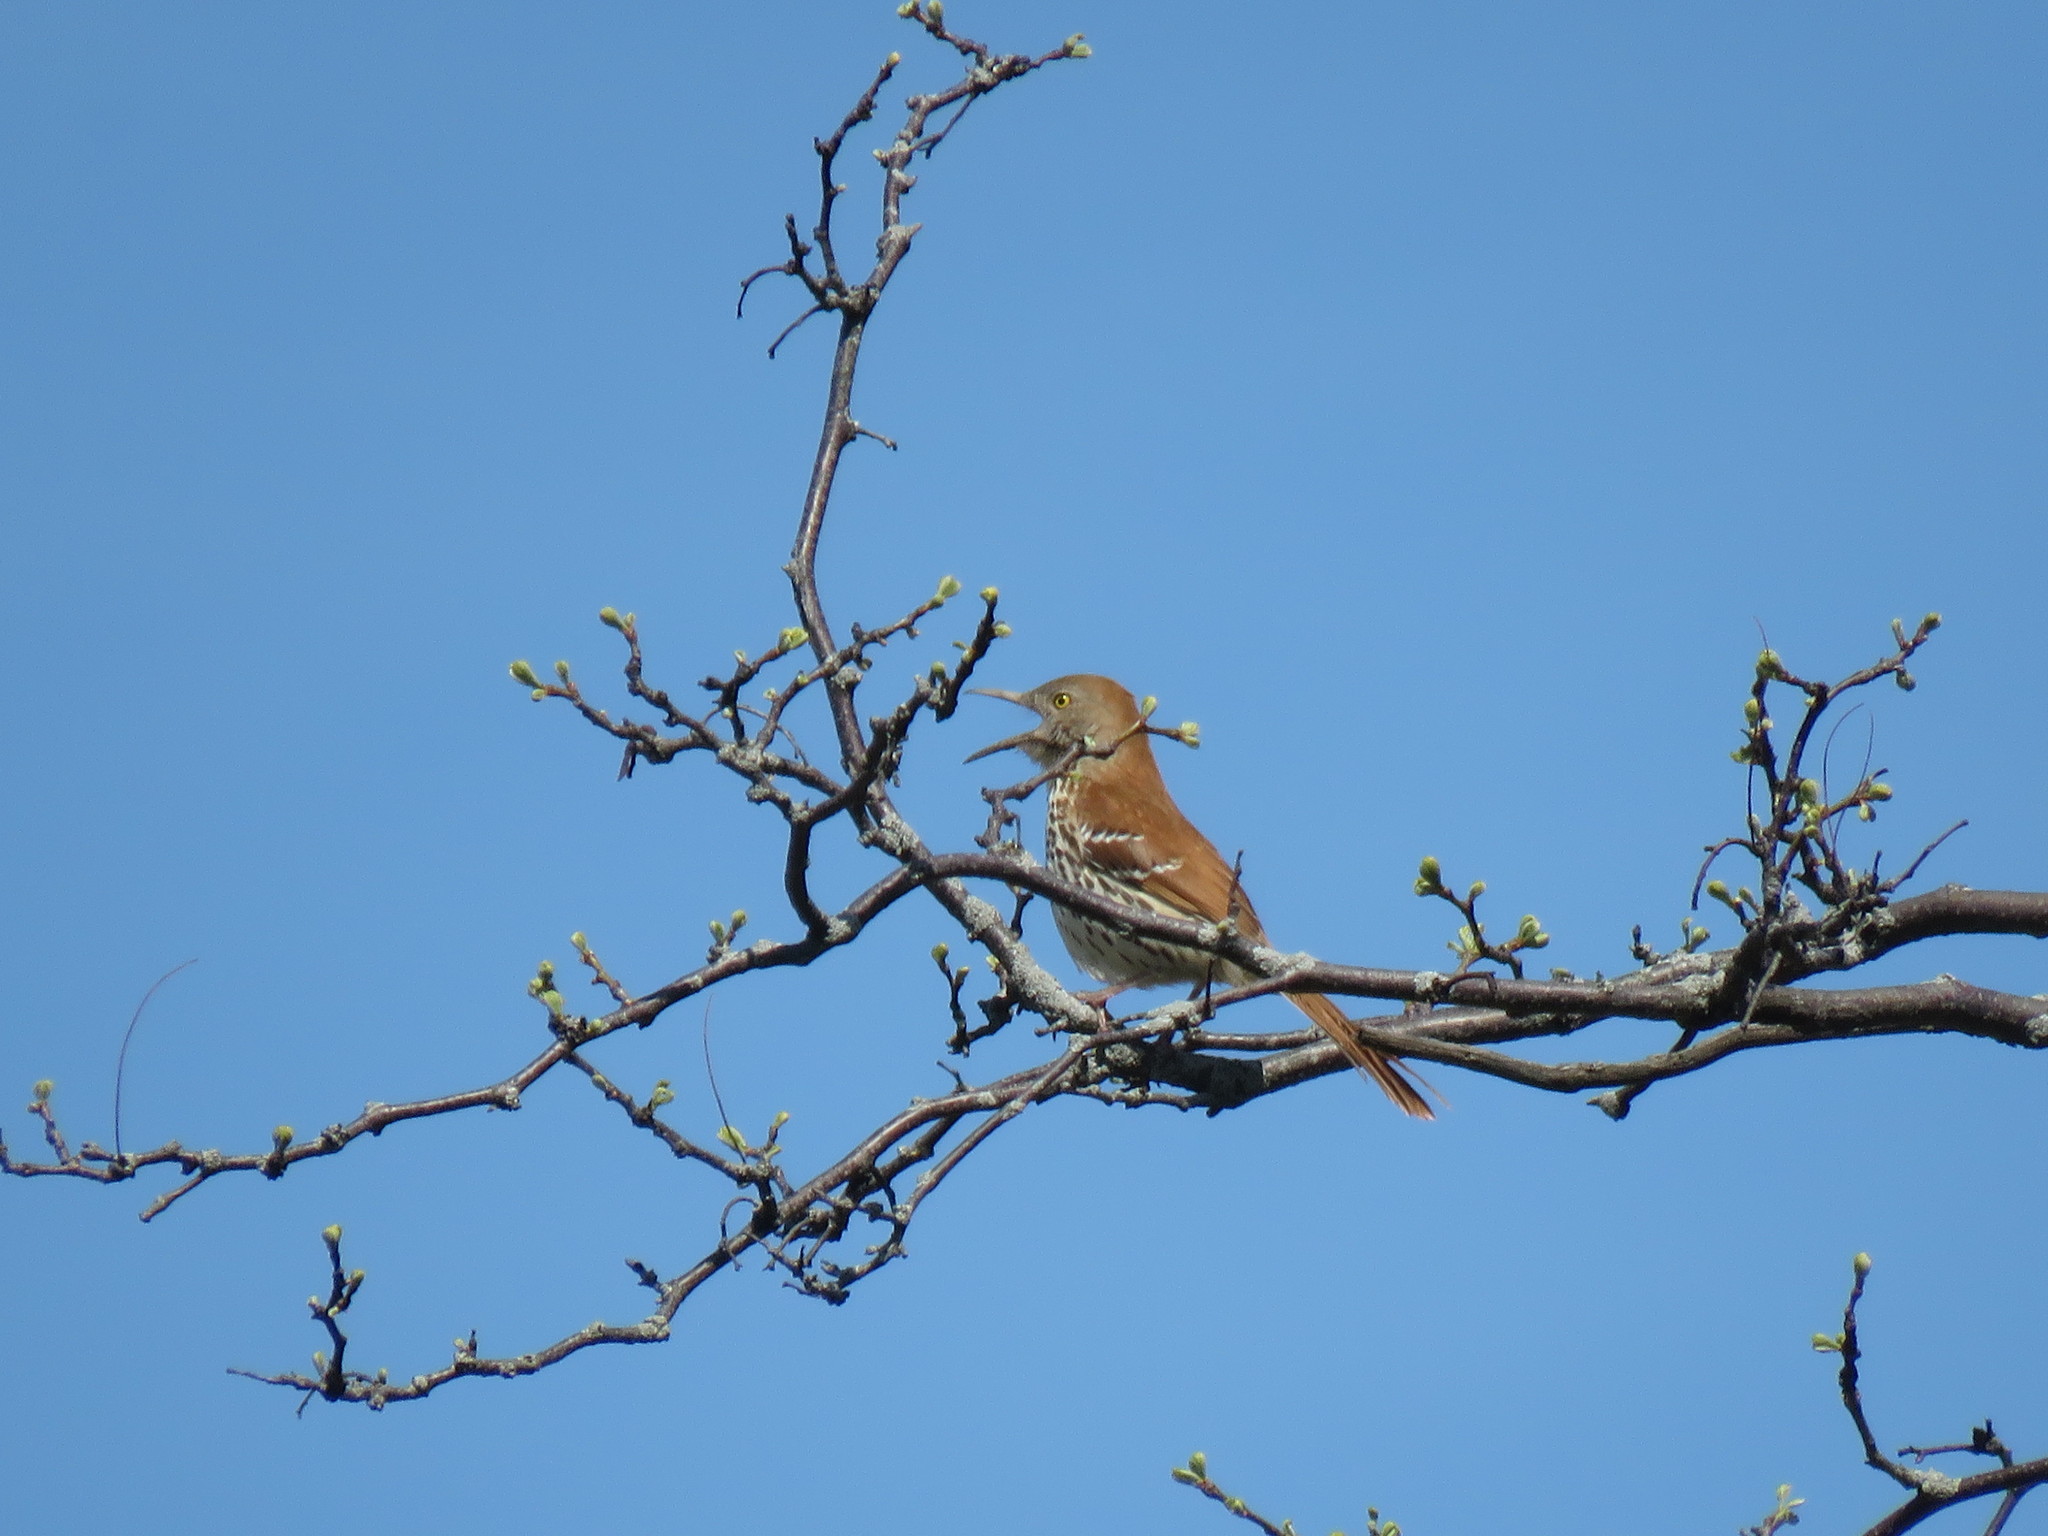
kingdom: Animalia
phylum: Chordata
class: Aves
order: Passeriformes
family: Mimidae
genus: Toxostoma
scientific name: Toxostoma rufum
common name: Brown thrasher
